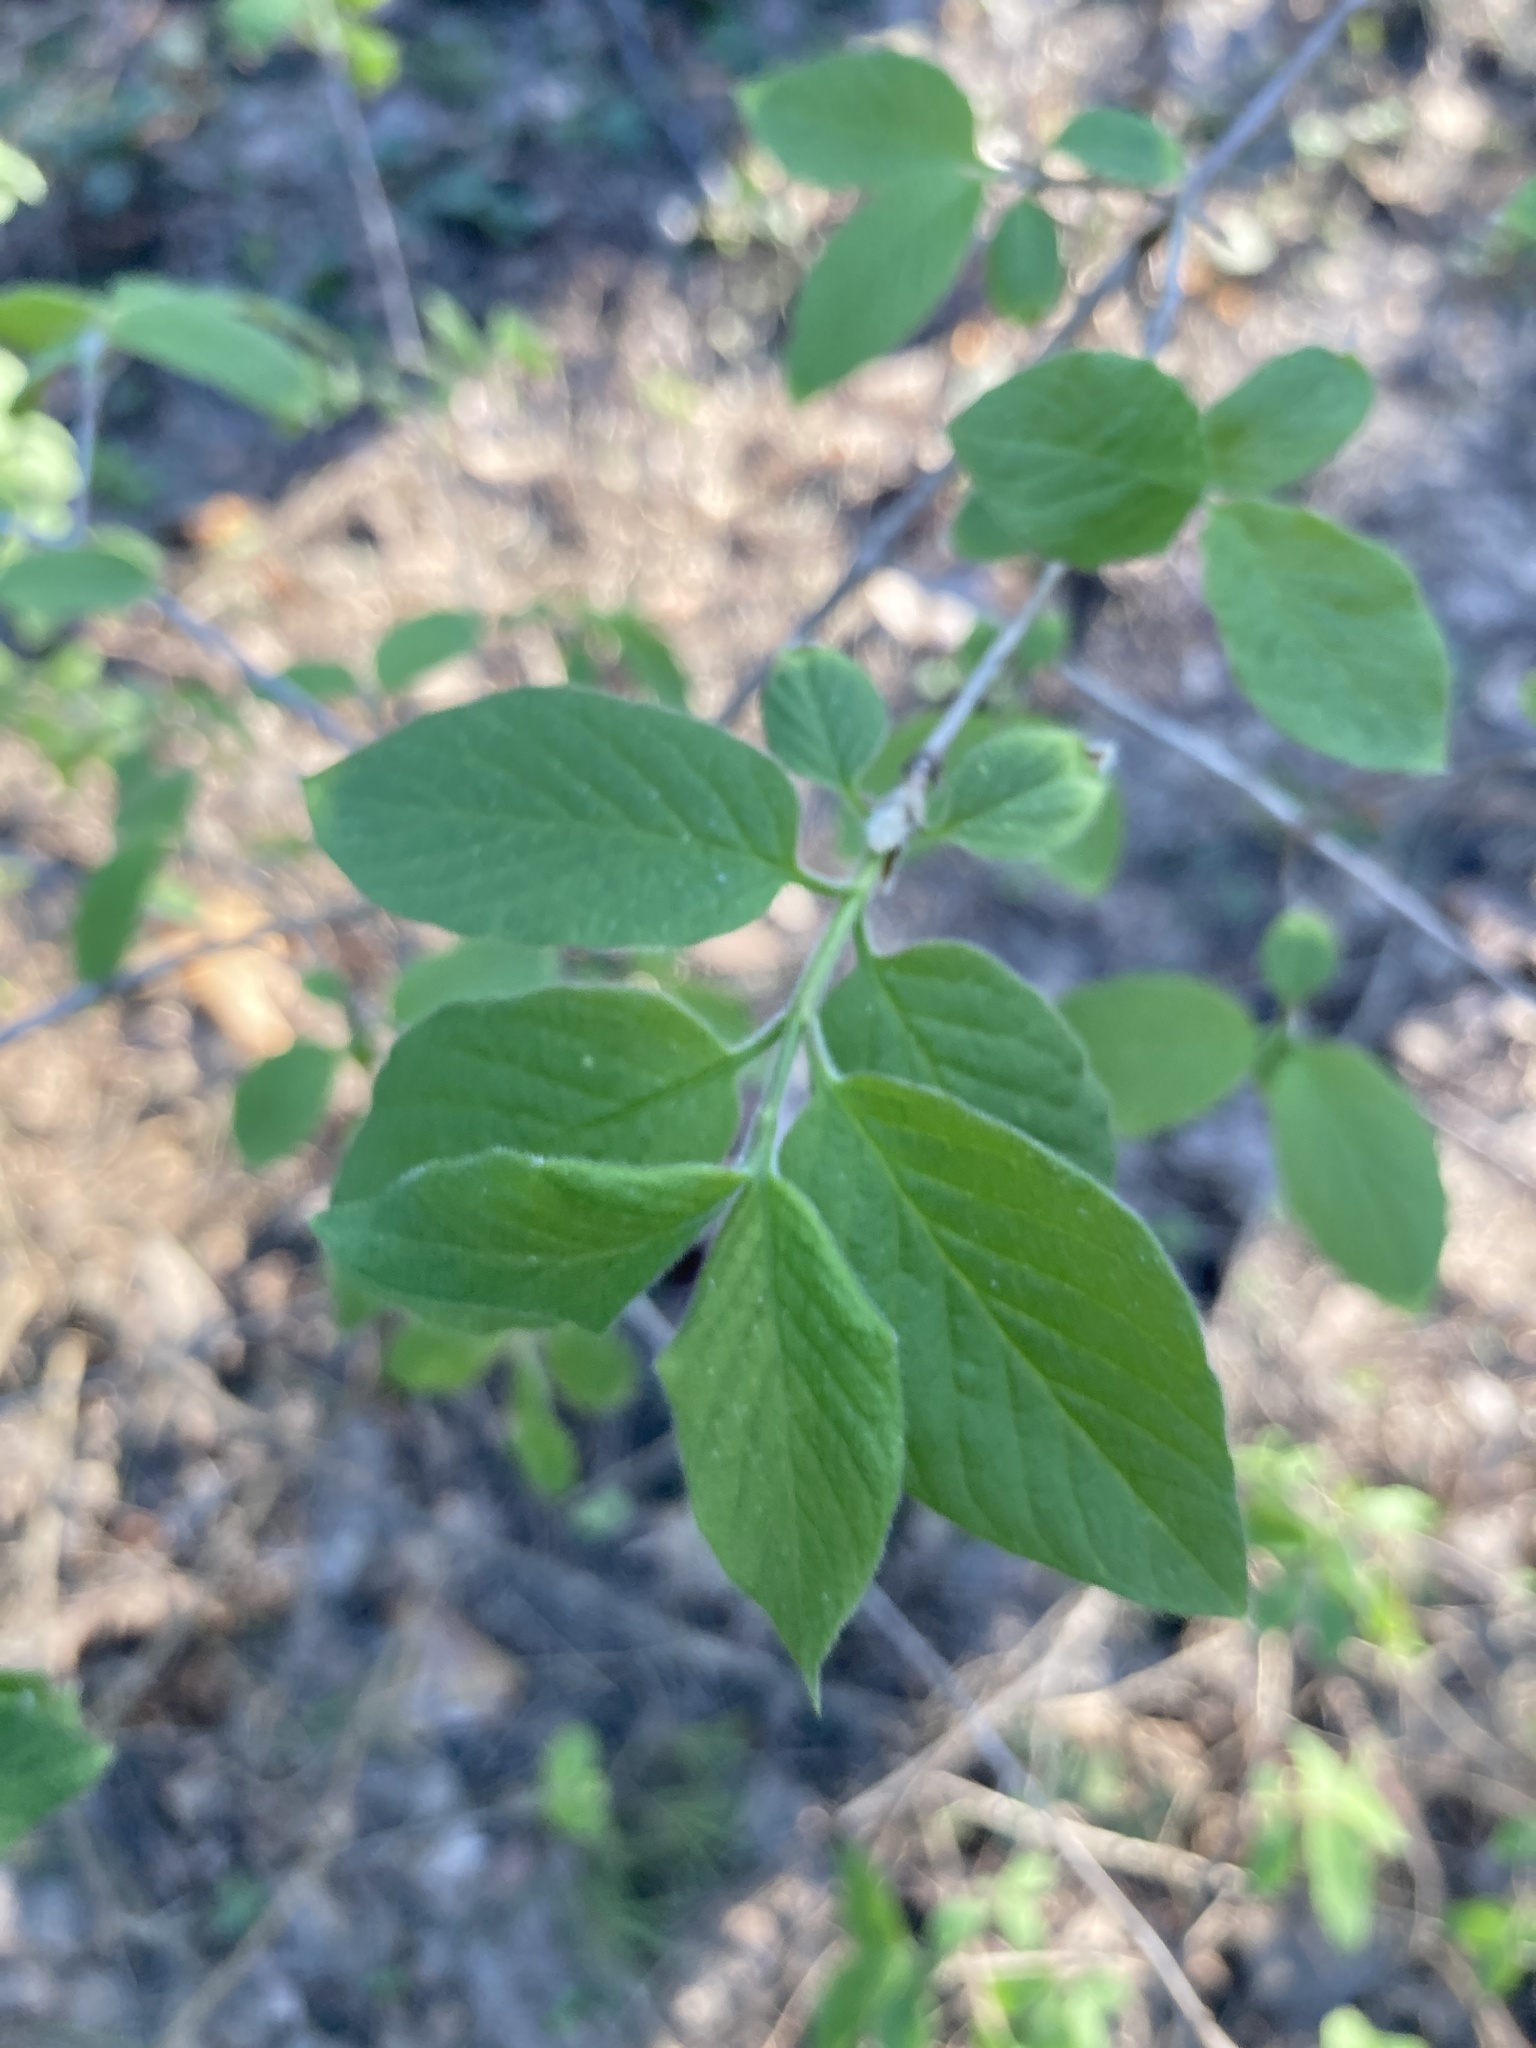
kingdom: Plantae
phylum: Tracheophyta
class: Magnoliopsida
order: Dipsacales
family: Caprifoliaceae
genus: Lonicera
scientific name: Lonicera xylosteum
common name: Fly honeysuckle
